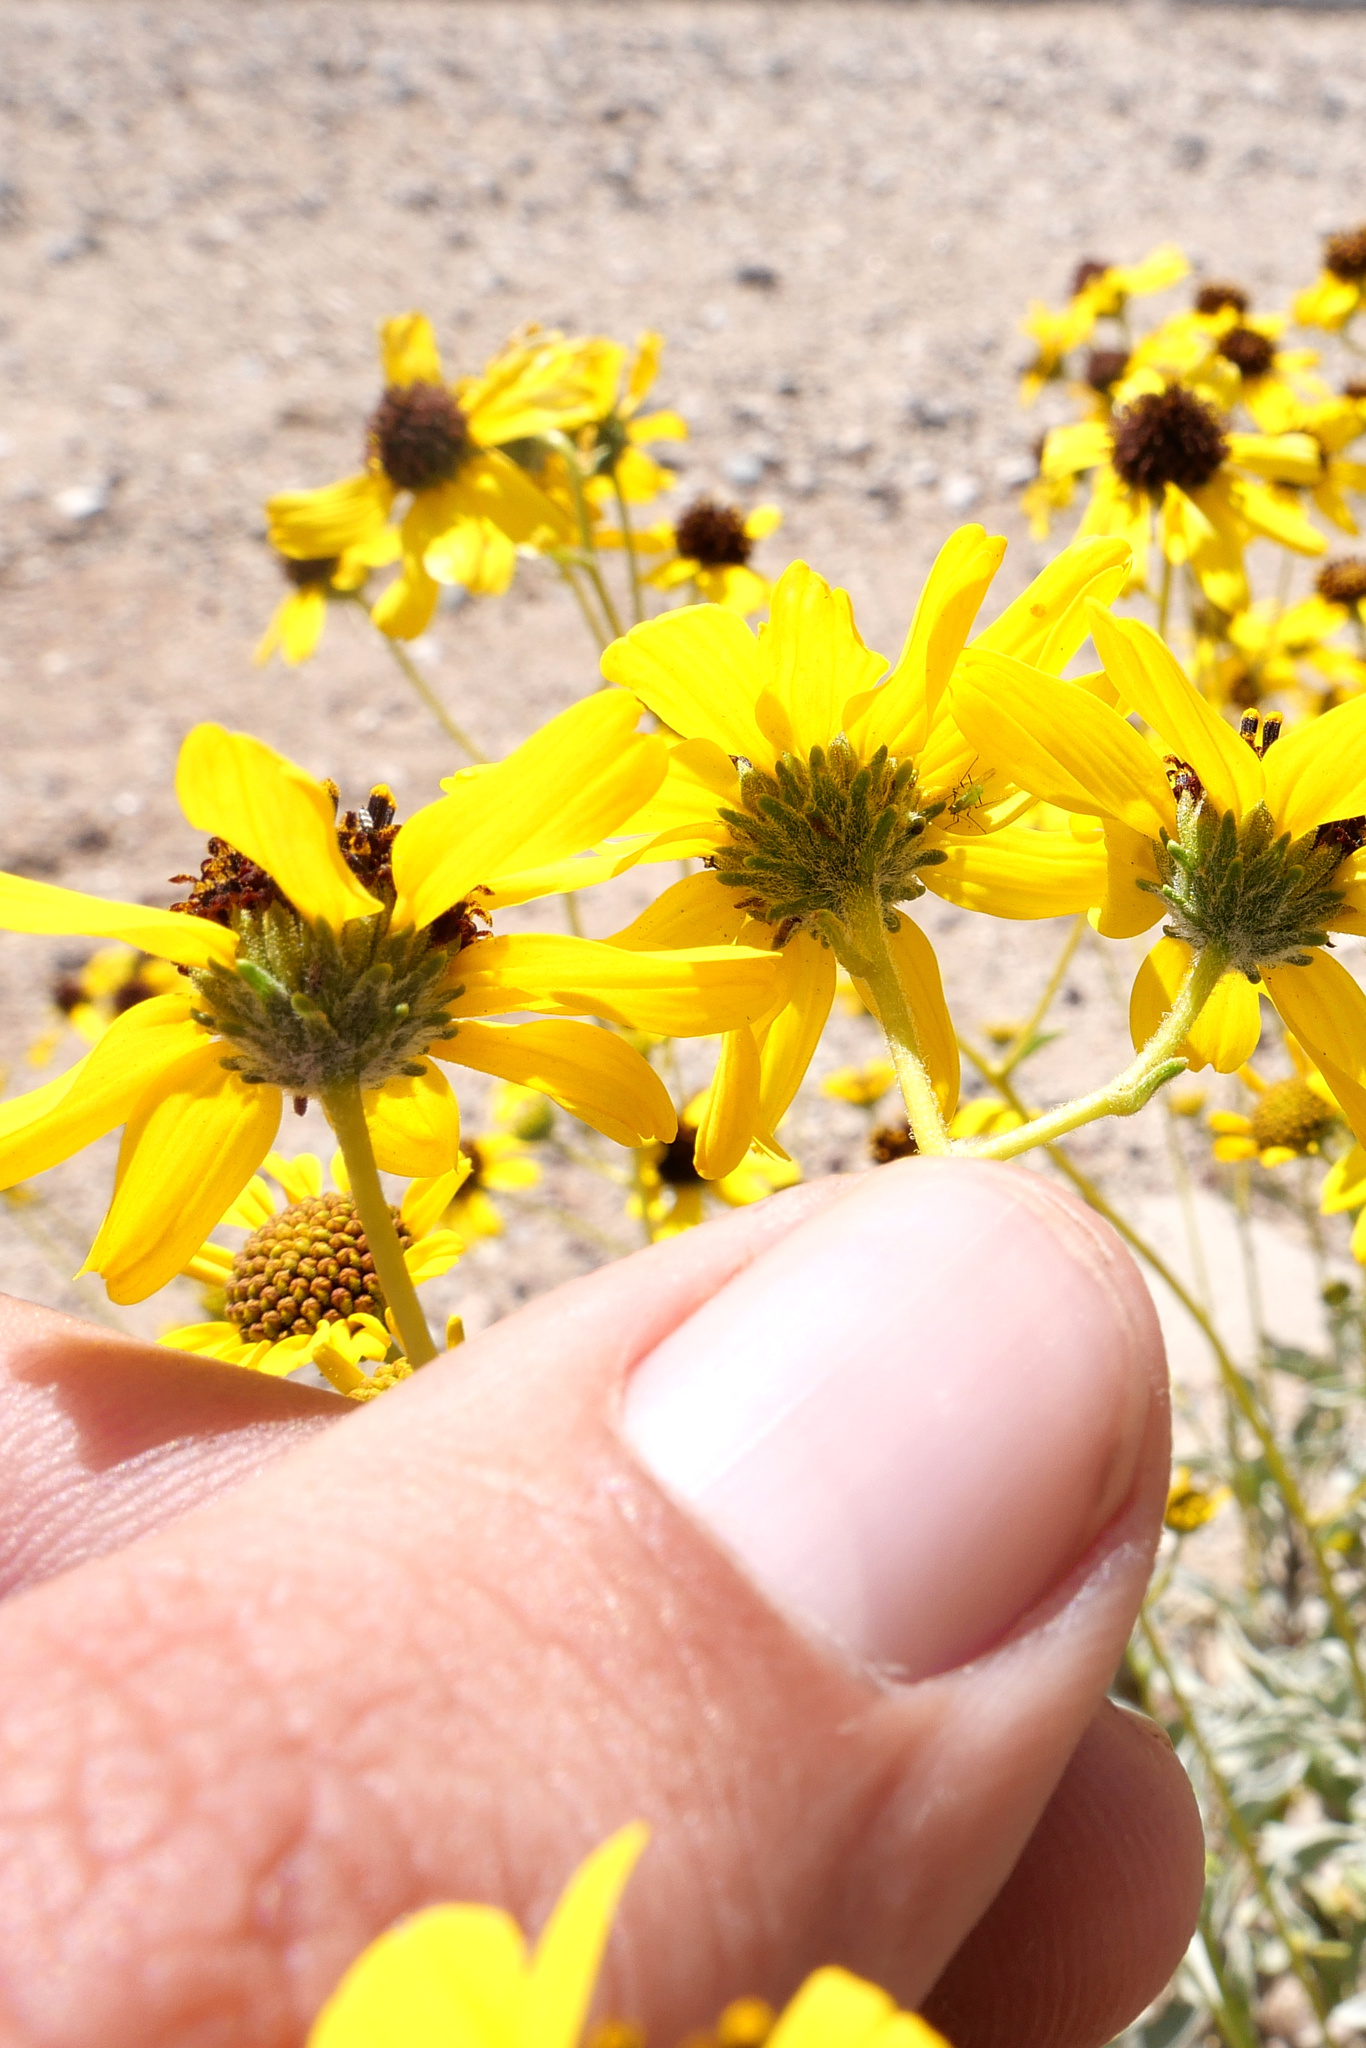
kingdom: Plantae
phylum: Tracheophyta
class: Magnoliopsida
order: Asterales
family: Asteraceae
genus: Encelia
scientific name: Encelia farinosa
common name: Brittlebush
